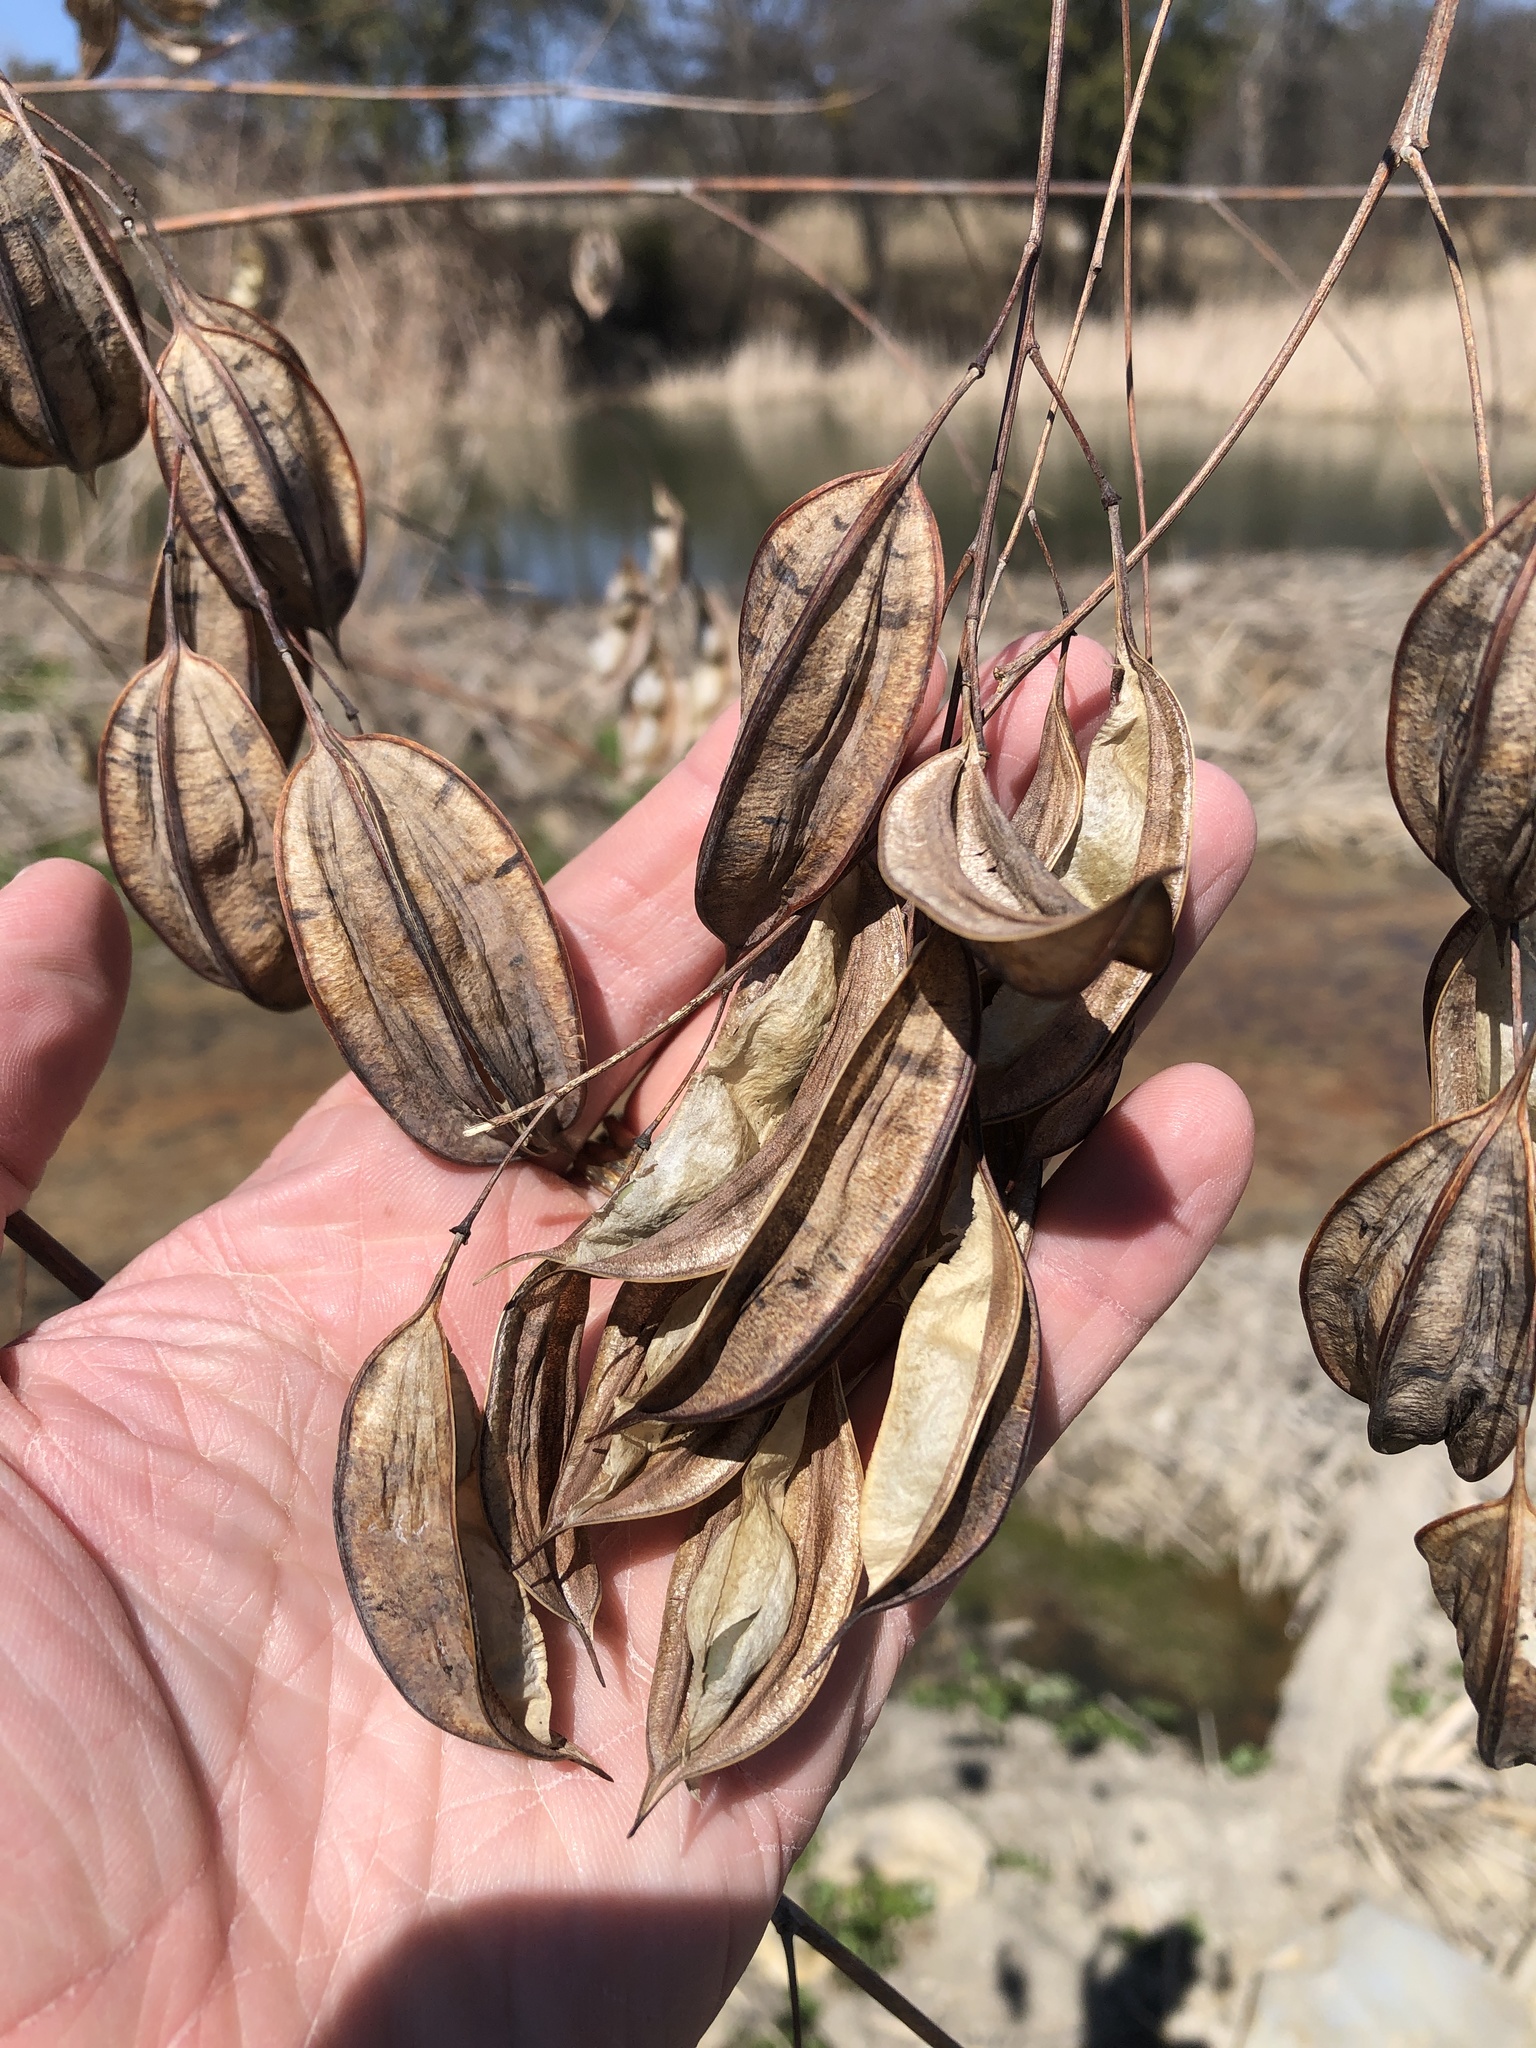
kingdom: Plantae
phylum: Tracheophyta
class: Magnoliopsida
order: Fabales
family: Fabaceae
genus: Sesbania
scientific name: Sesbania vesicaria
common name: Bagpod
